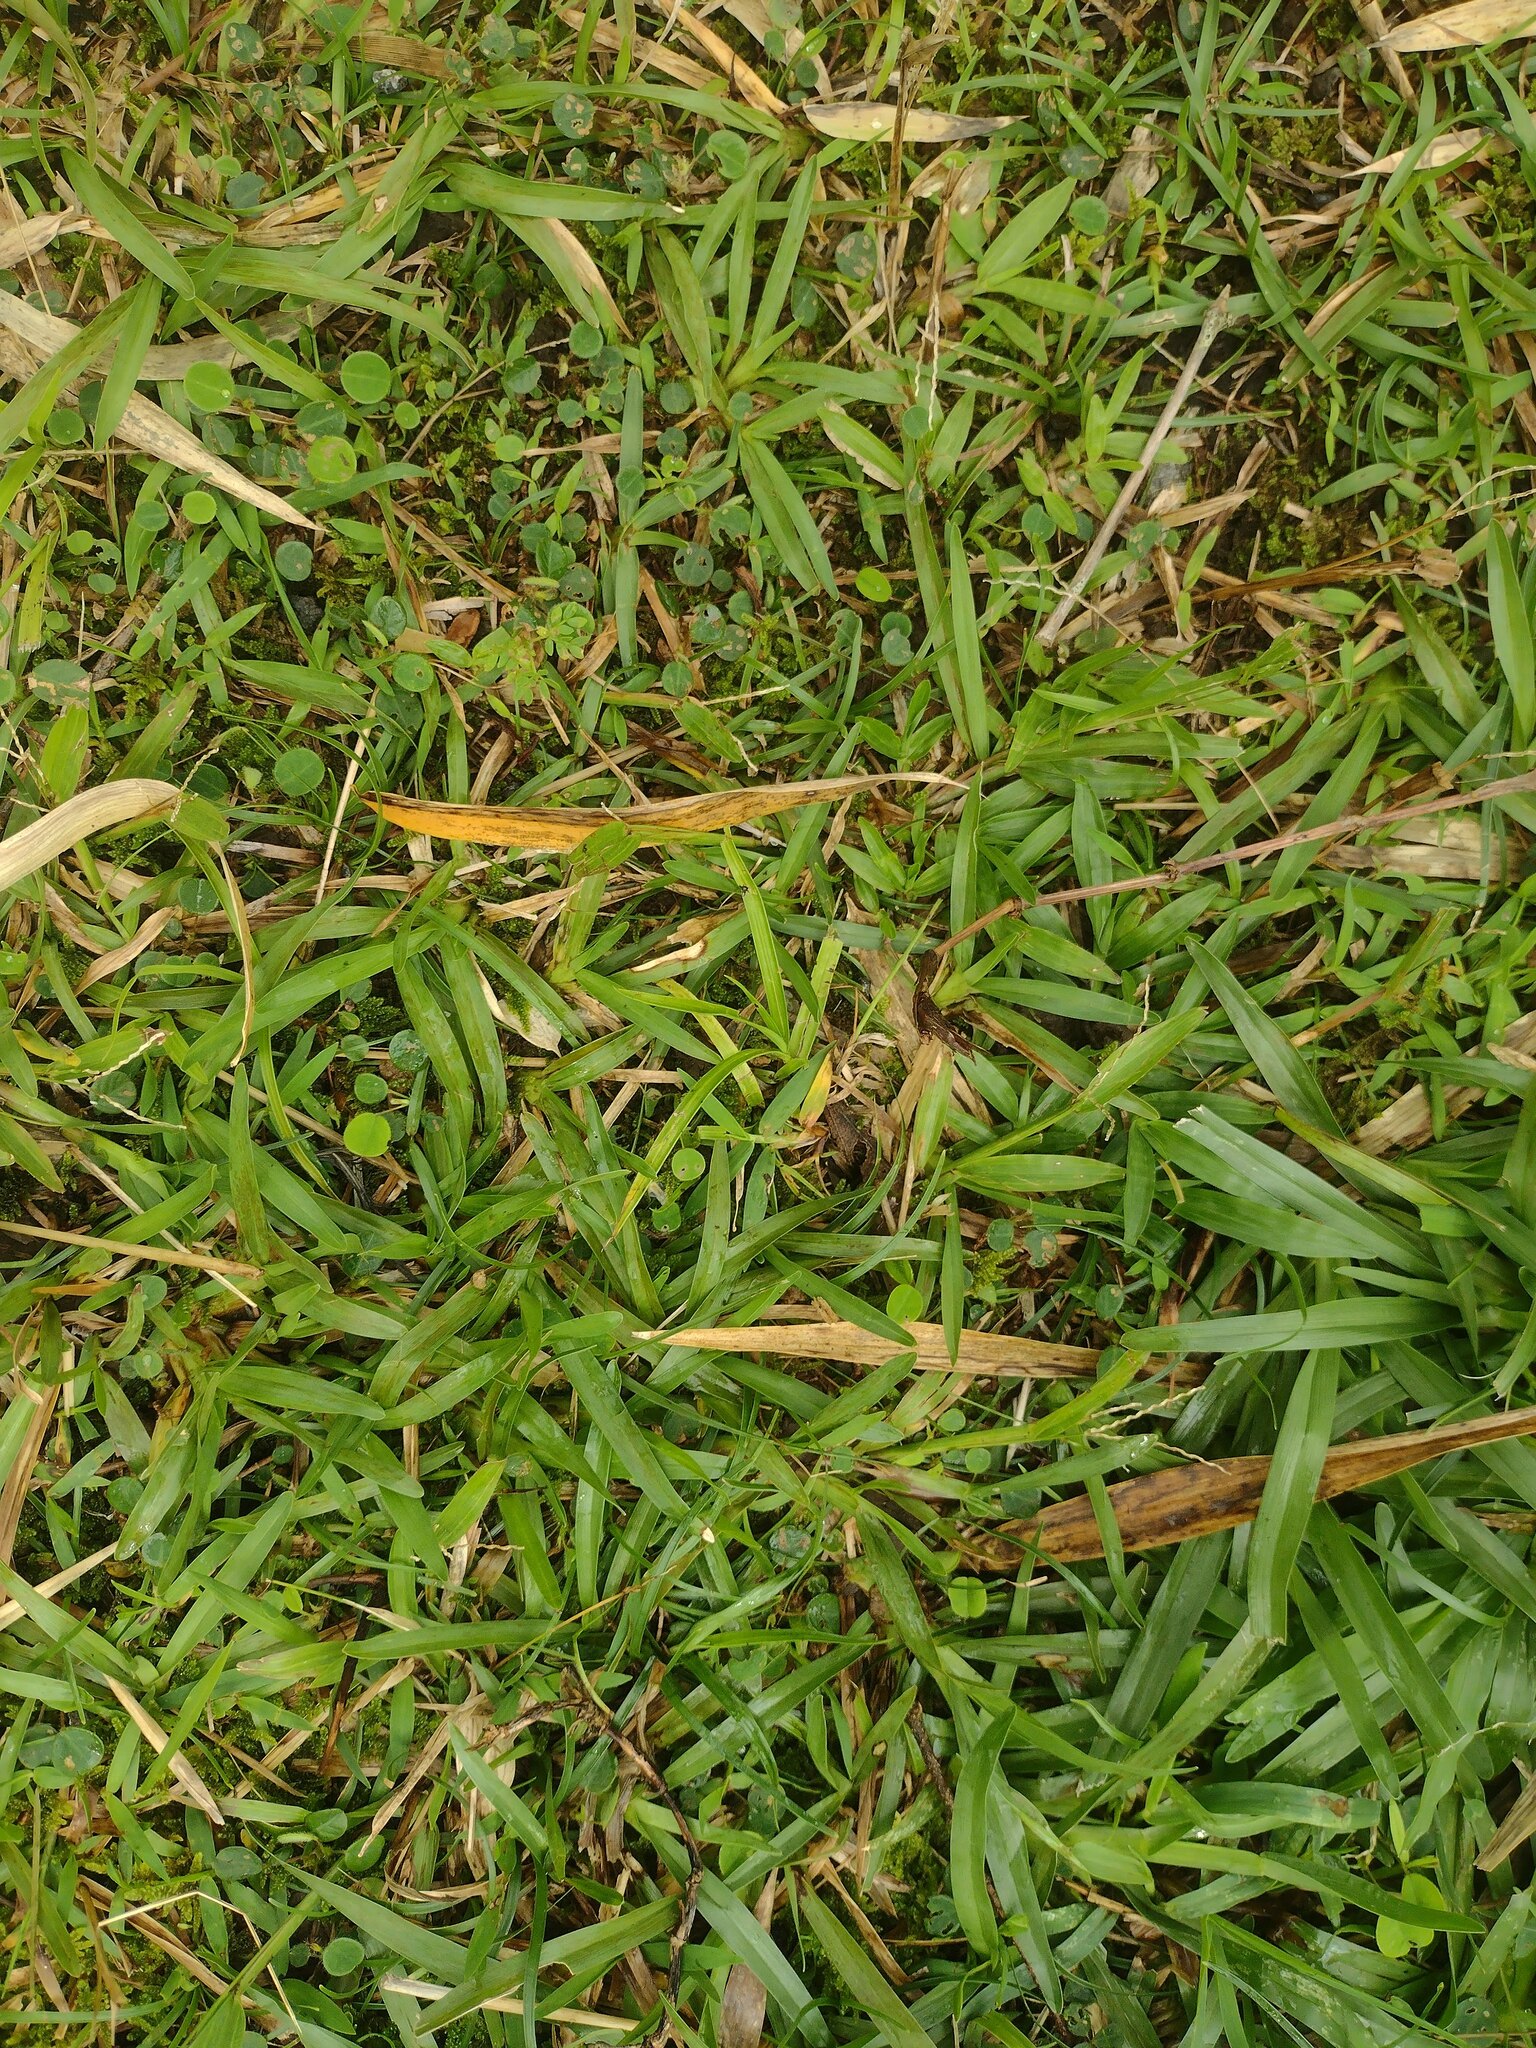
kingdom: Plantae
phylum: Tracheophyta
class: Liliopsida
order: Poales
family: Poaceae
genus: Axonopus
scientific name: Axonopus fissifolius
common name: Common carpetgrass
